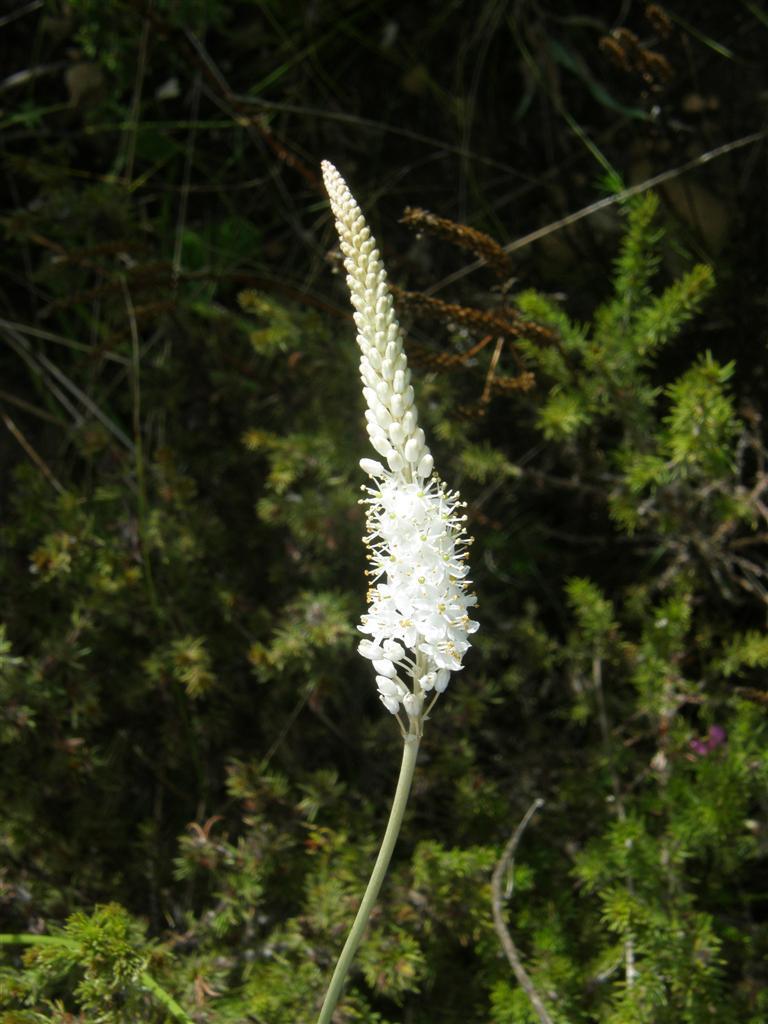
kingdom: Plantae
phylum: Tracheophyta
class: Liliopsida
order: Asparagales
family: Asphodelaceae
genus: Bulbinella
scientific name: Bulbinella trinervis
